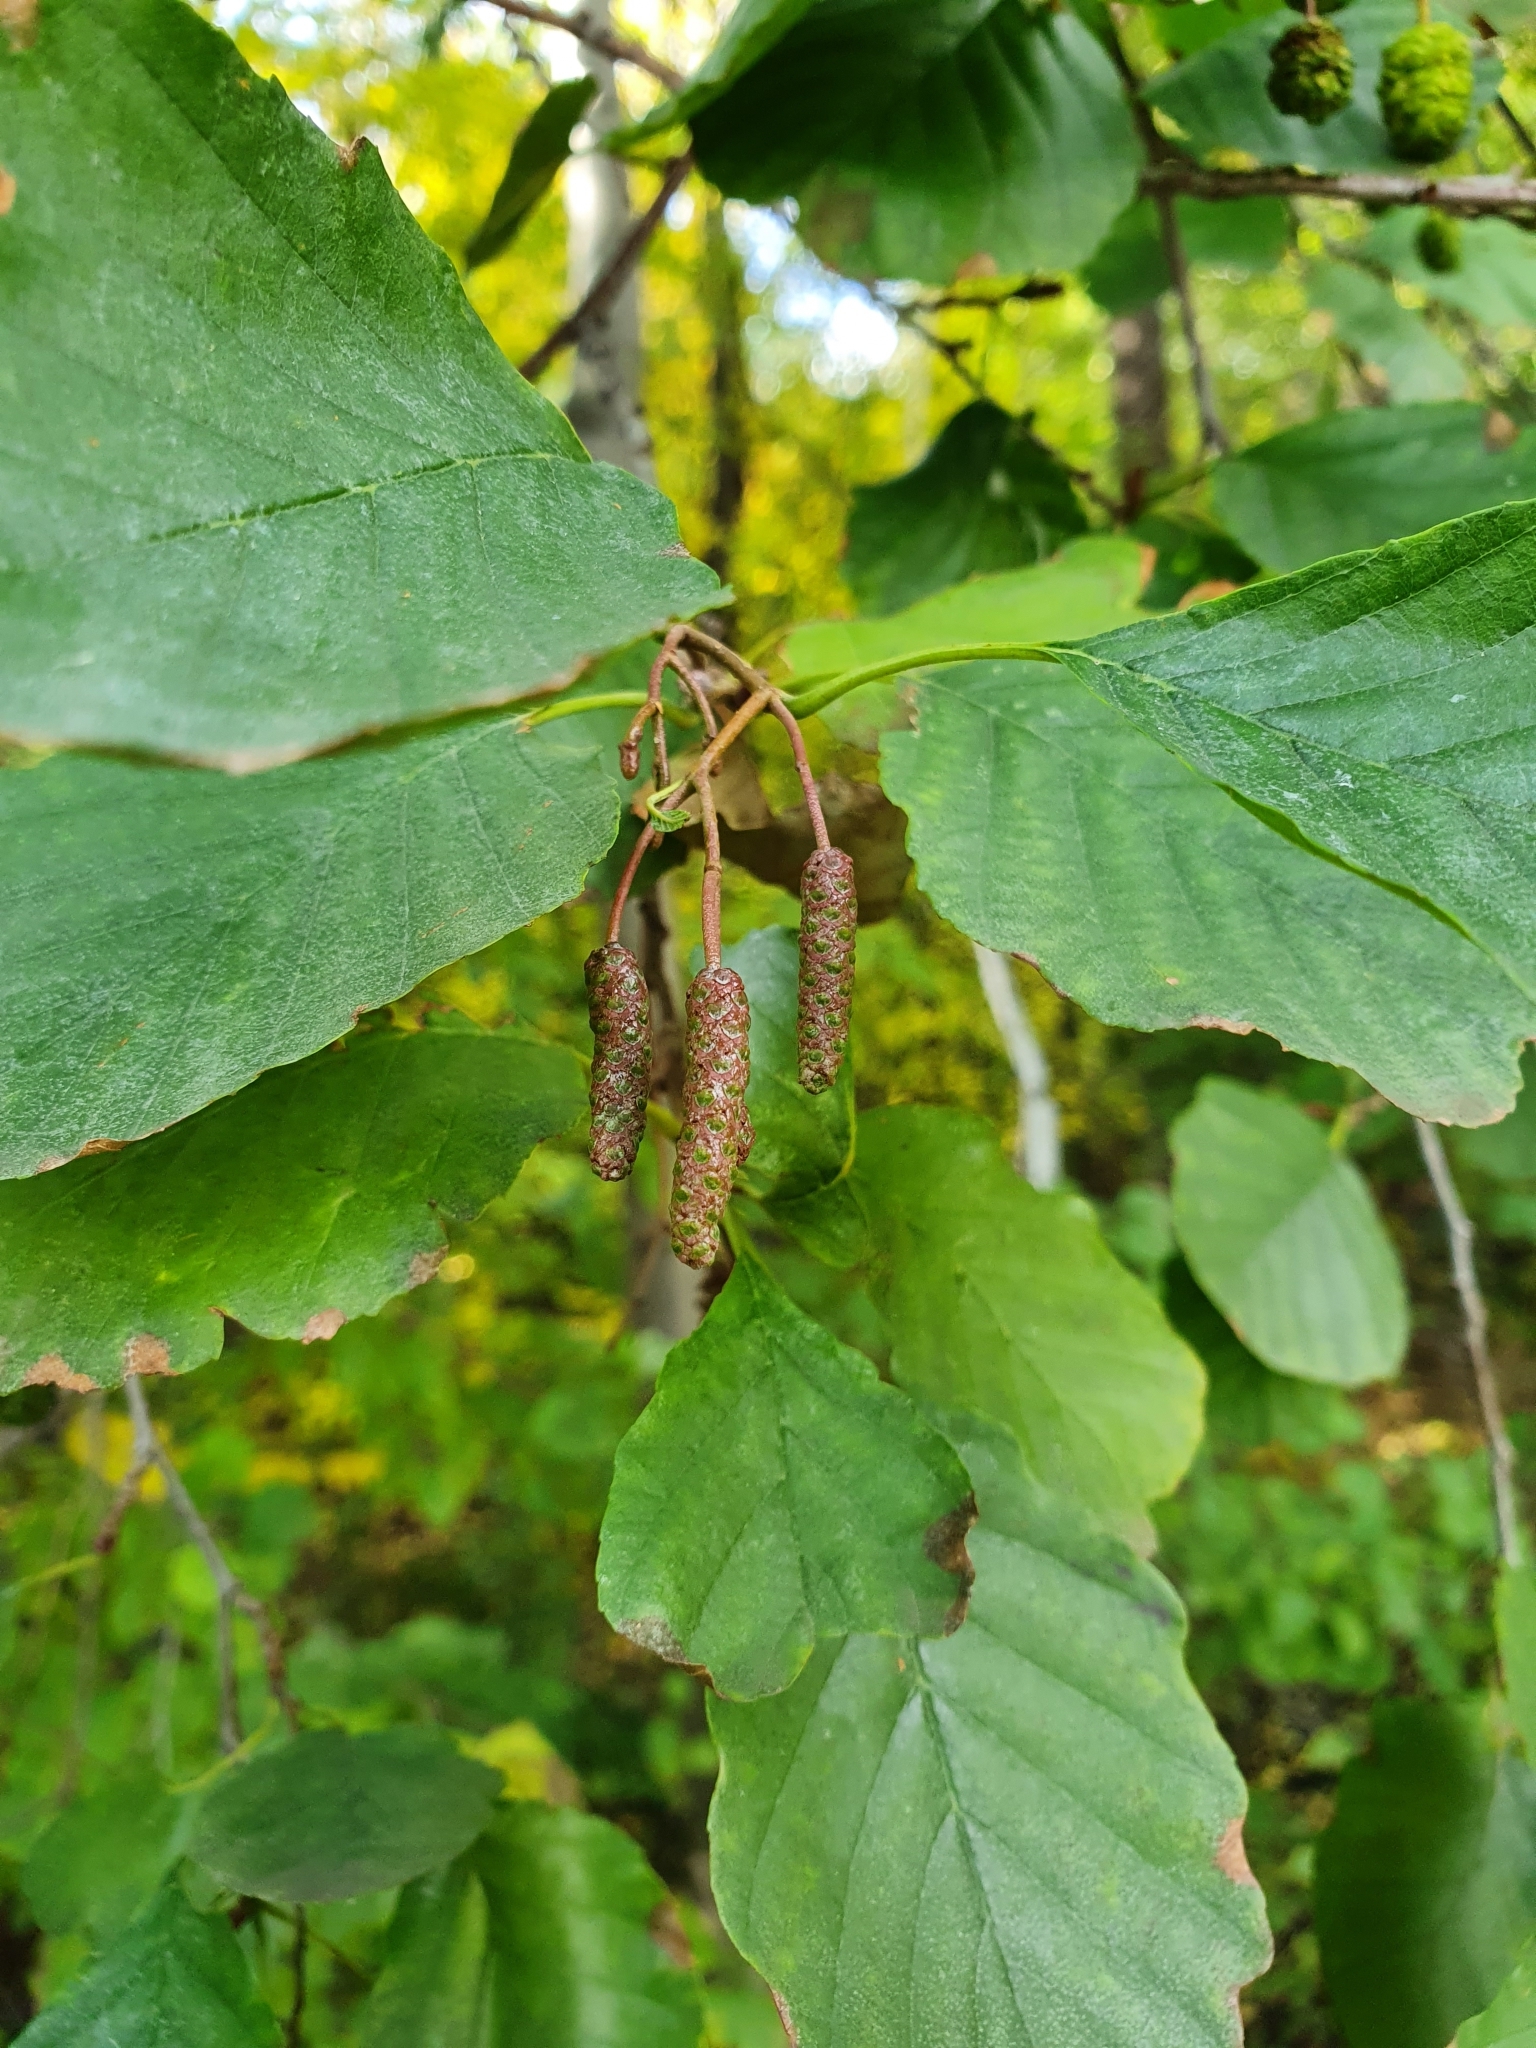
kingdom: Plantae
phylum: Tracheophyta
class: Magnoliopsida
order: Fagales
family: Betulaceae
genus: Alnus
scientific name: Alnus glutinosa
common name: Black alder
